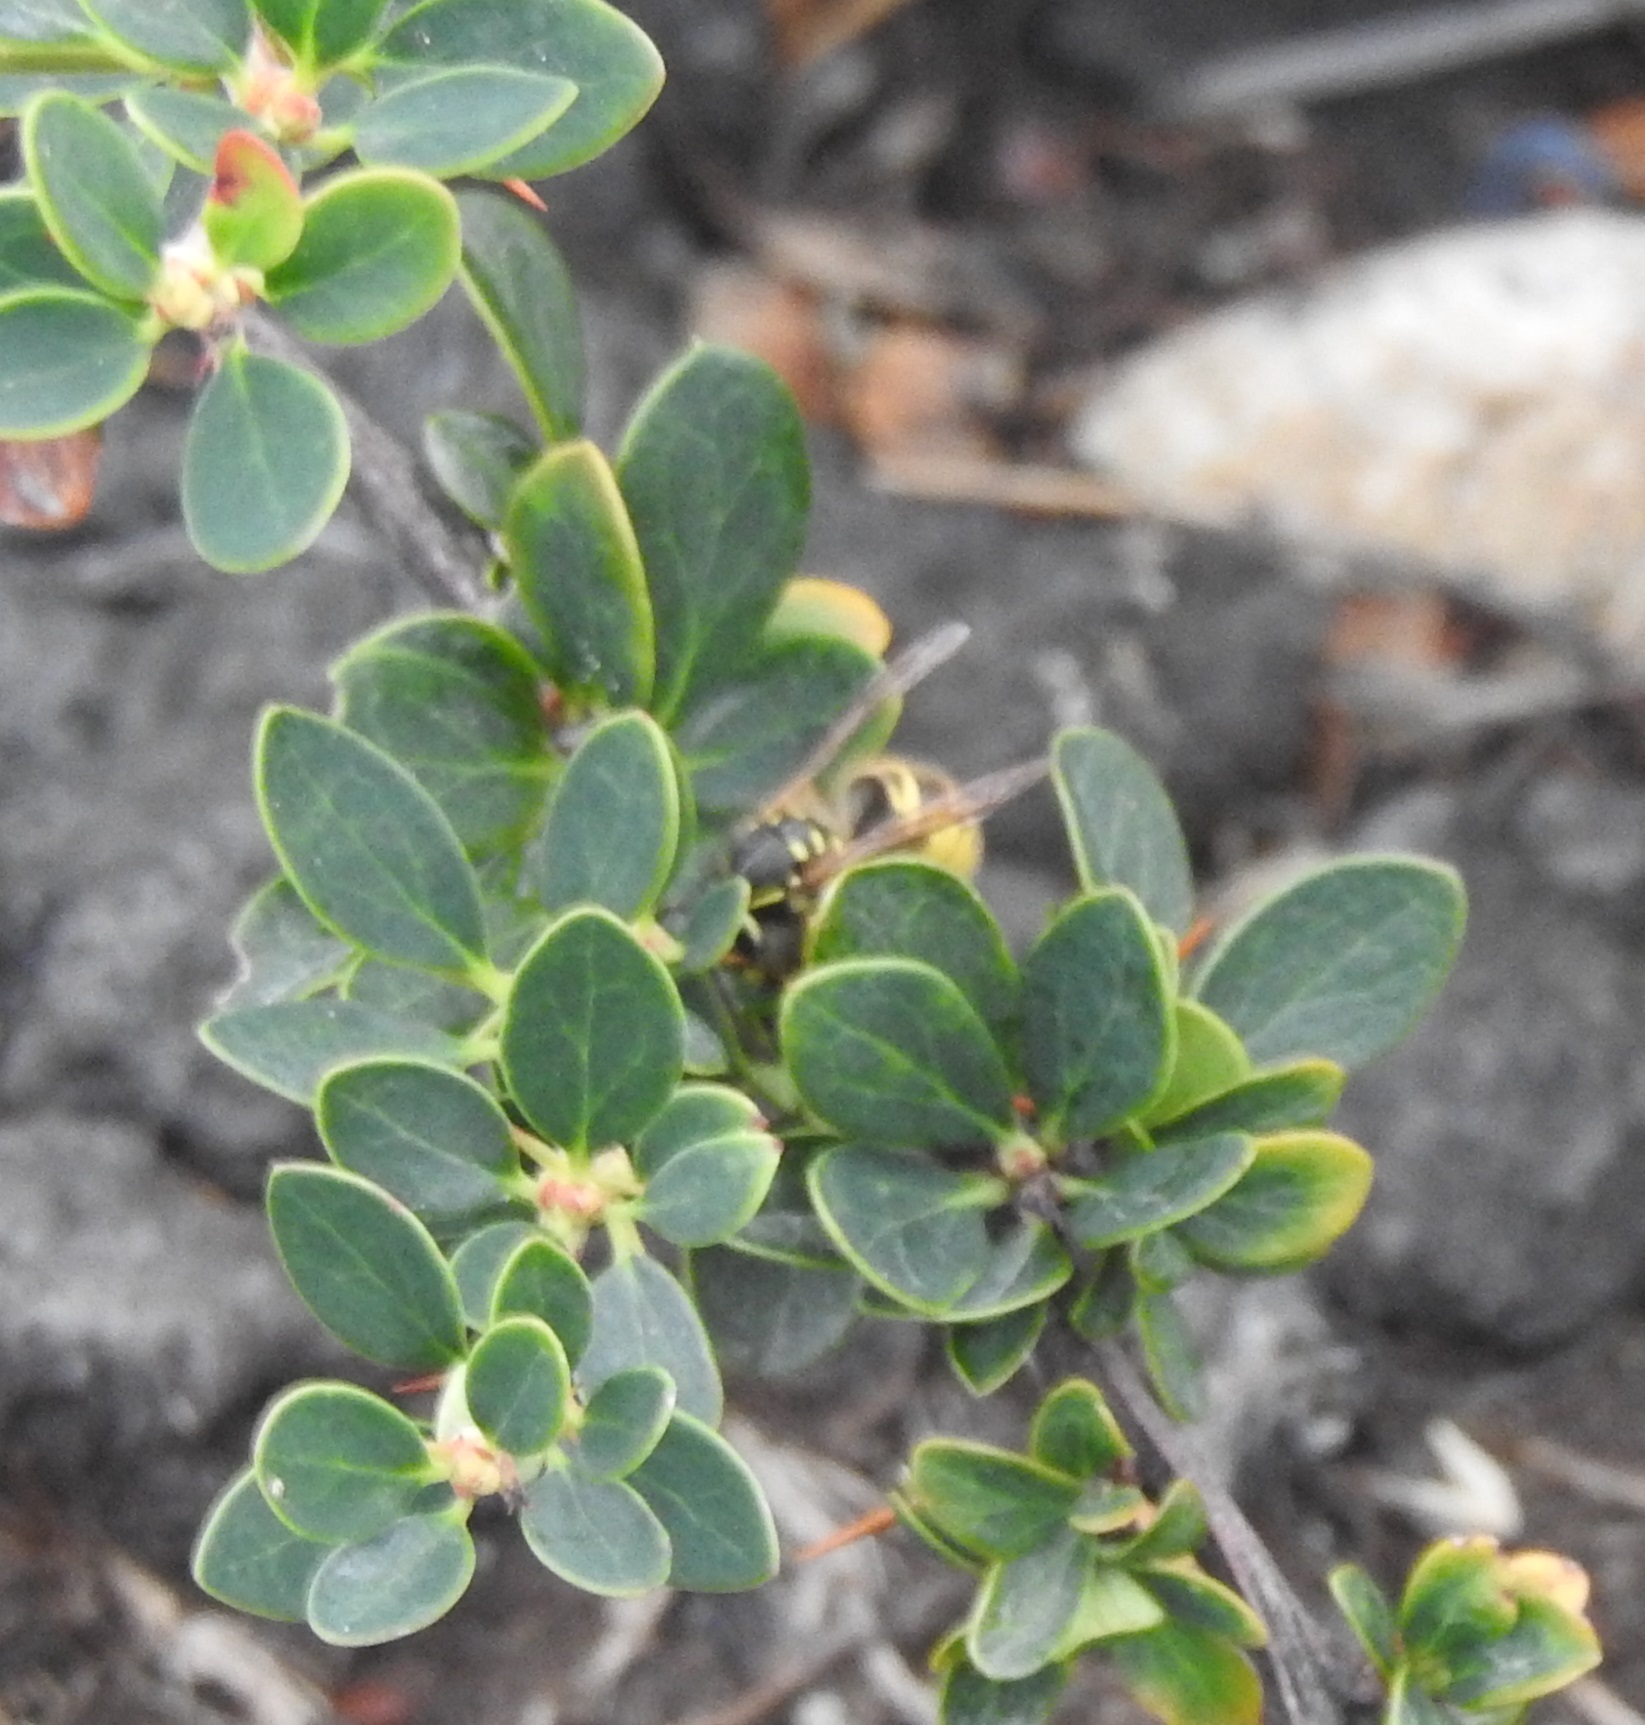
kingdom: Animalia
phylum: Arthropoda
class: Insecta
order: Hymenoptera
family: Vespidae
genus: Vespula
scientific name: Vespula vulgaris
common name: Common wasp
